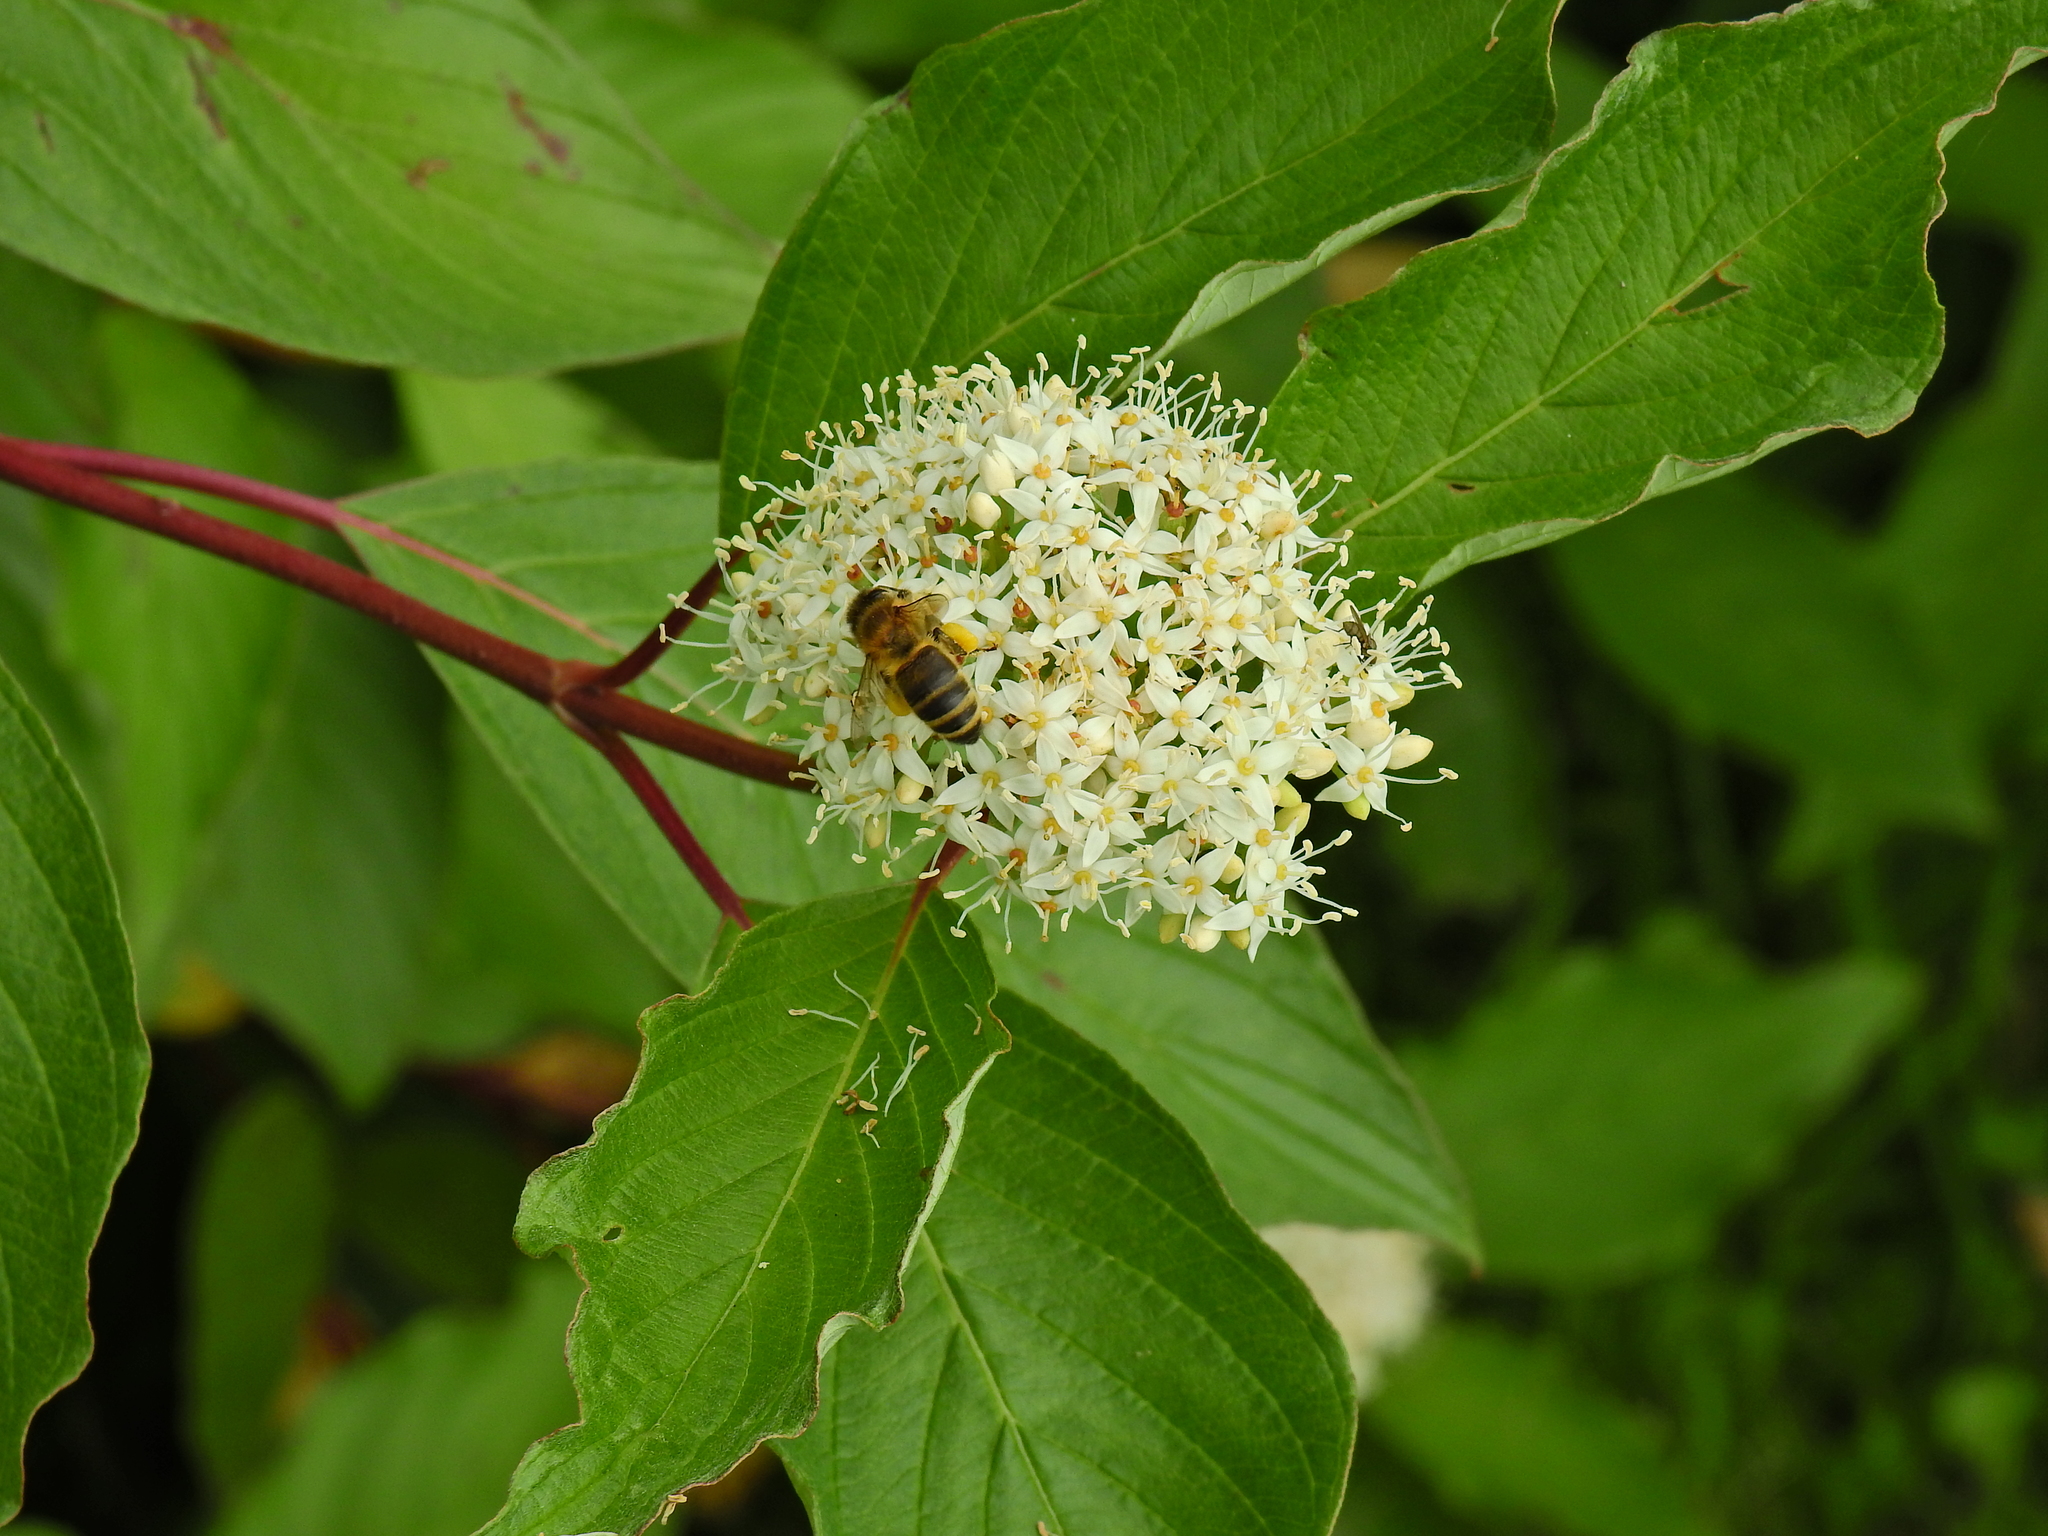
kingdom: Animalia
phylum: Arthropoda
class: Insecta
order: Hymenoptera
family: Apidae
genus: Apis
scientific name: Apis mellifera
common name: Honey bee
